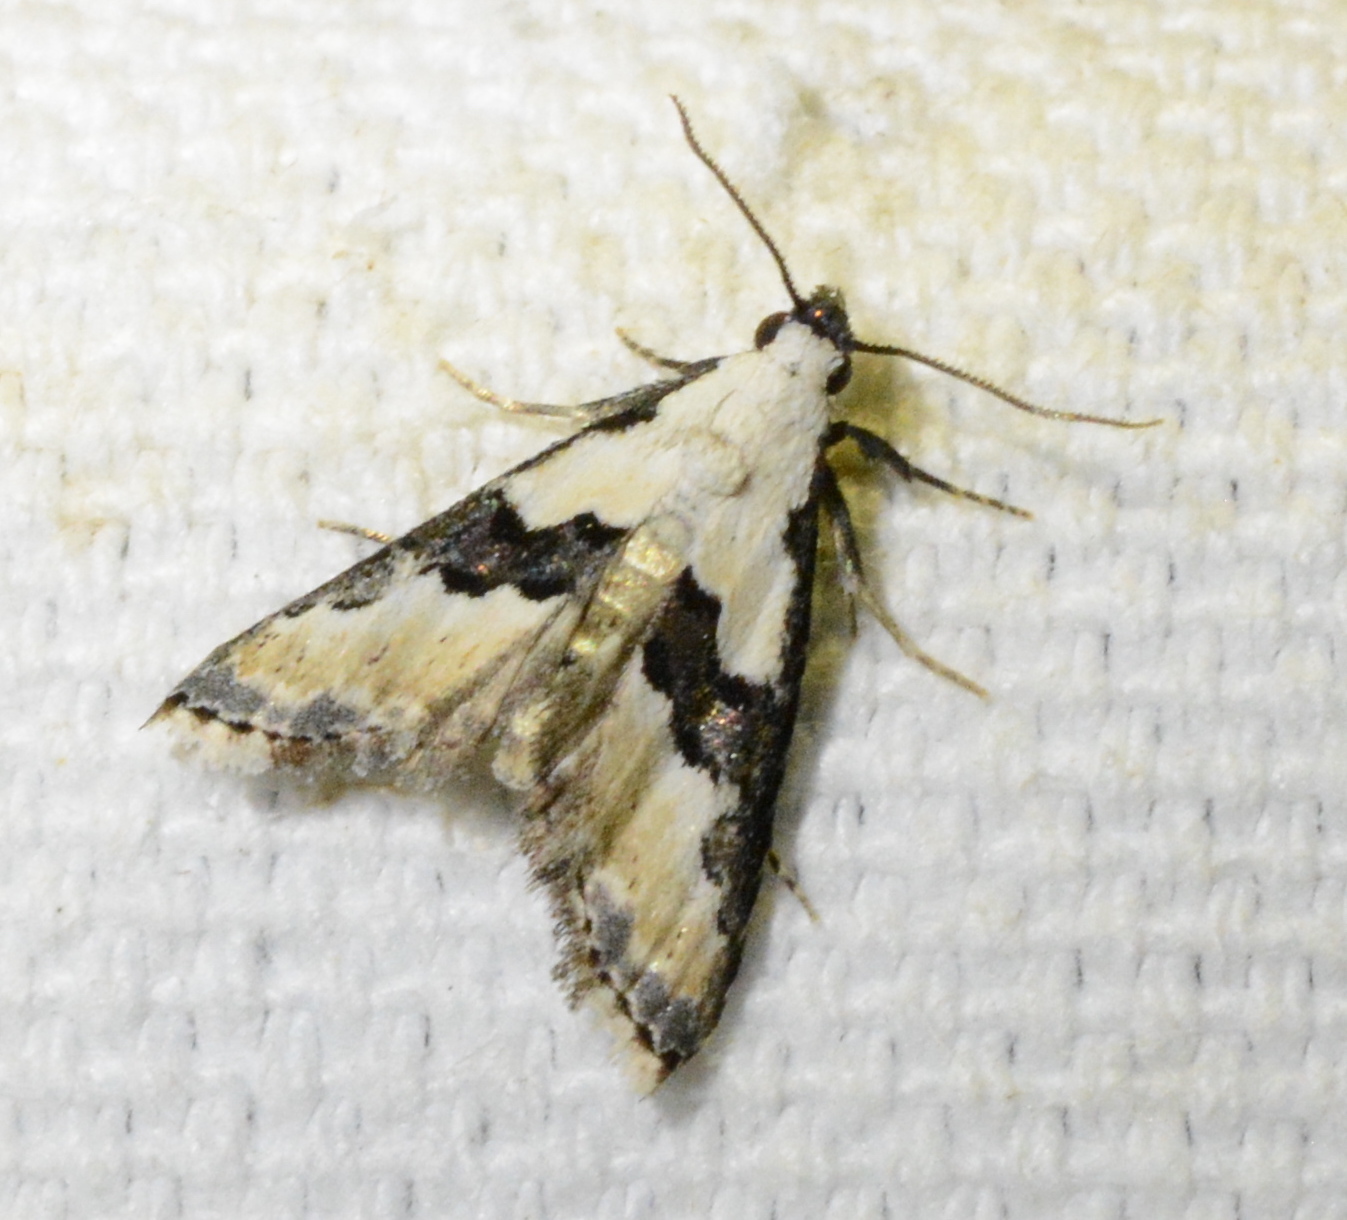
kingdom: Animalia
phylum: Arthropoda
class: Insecta
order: Lepidoptera
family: Noctuidae
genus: Nigetia
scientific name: Nigetia formosalis
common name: Thin-winged owlet
